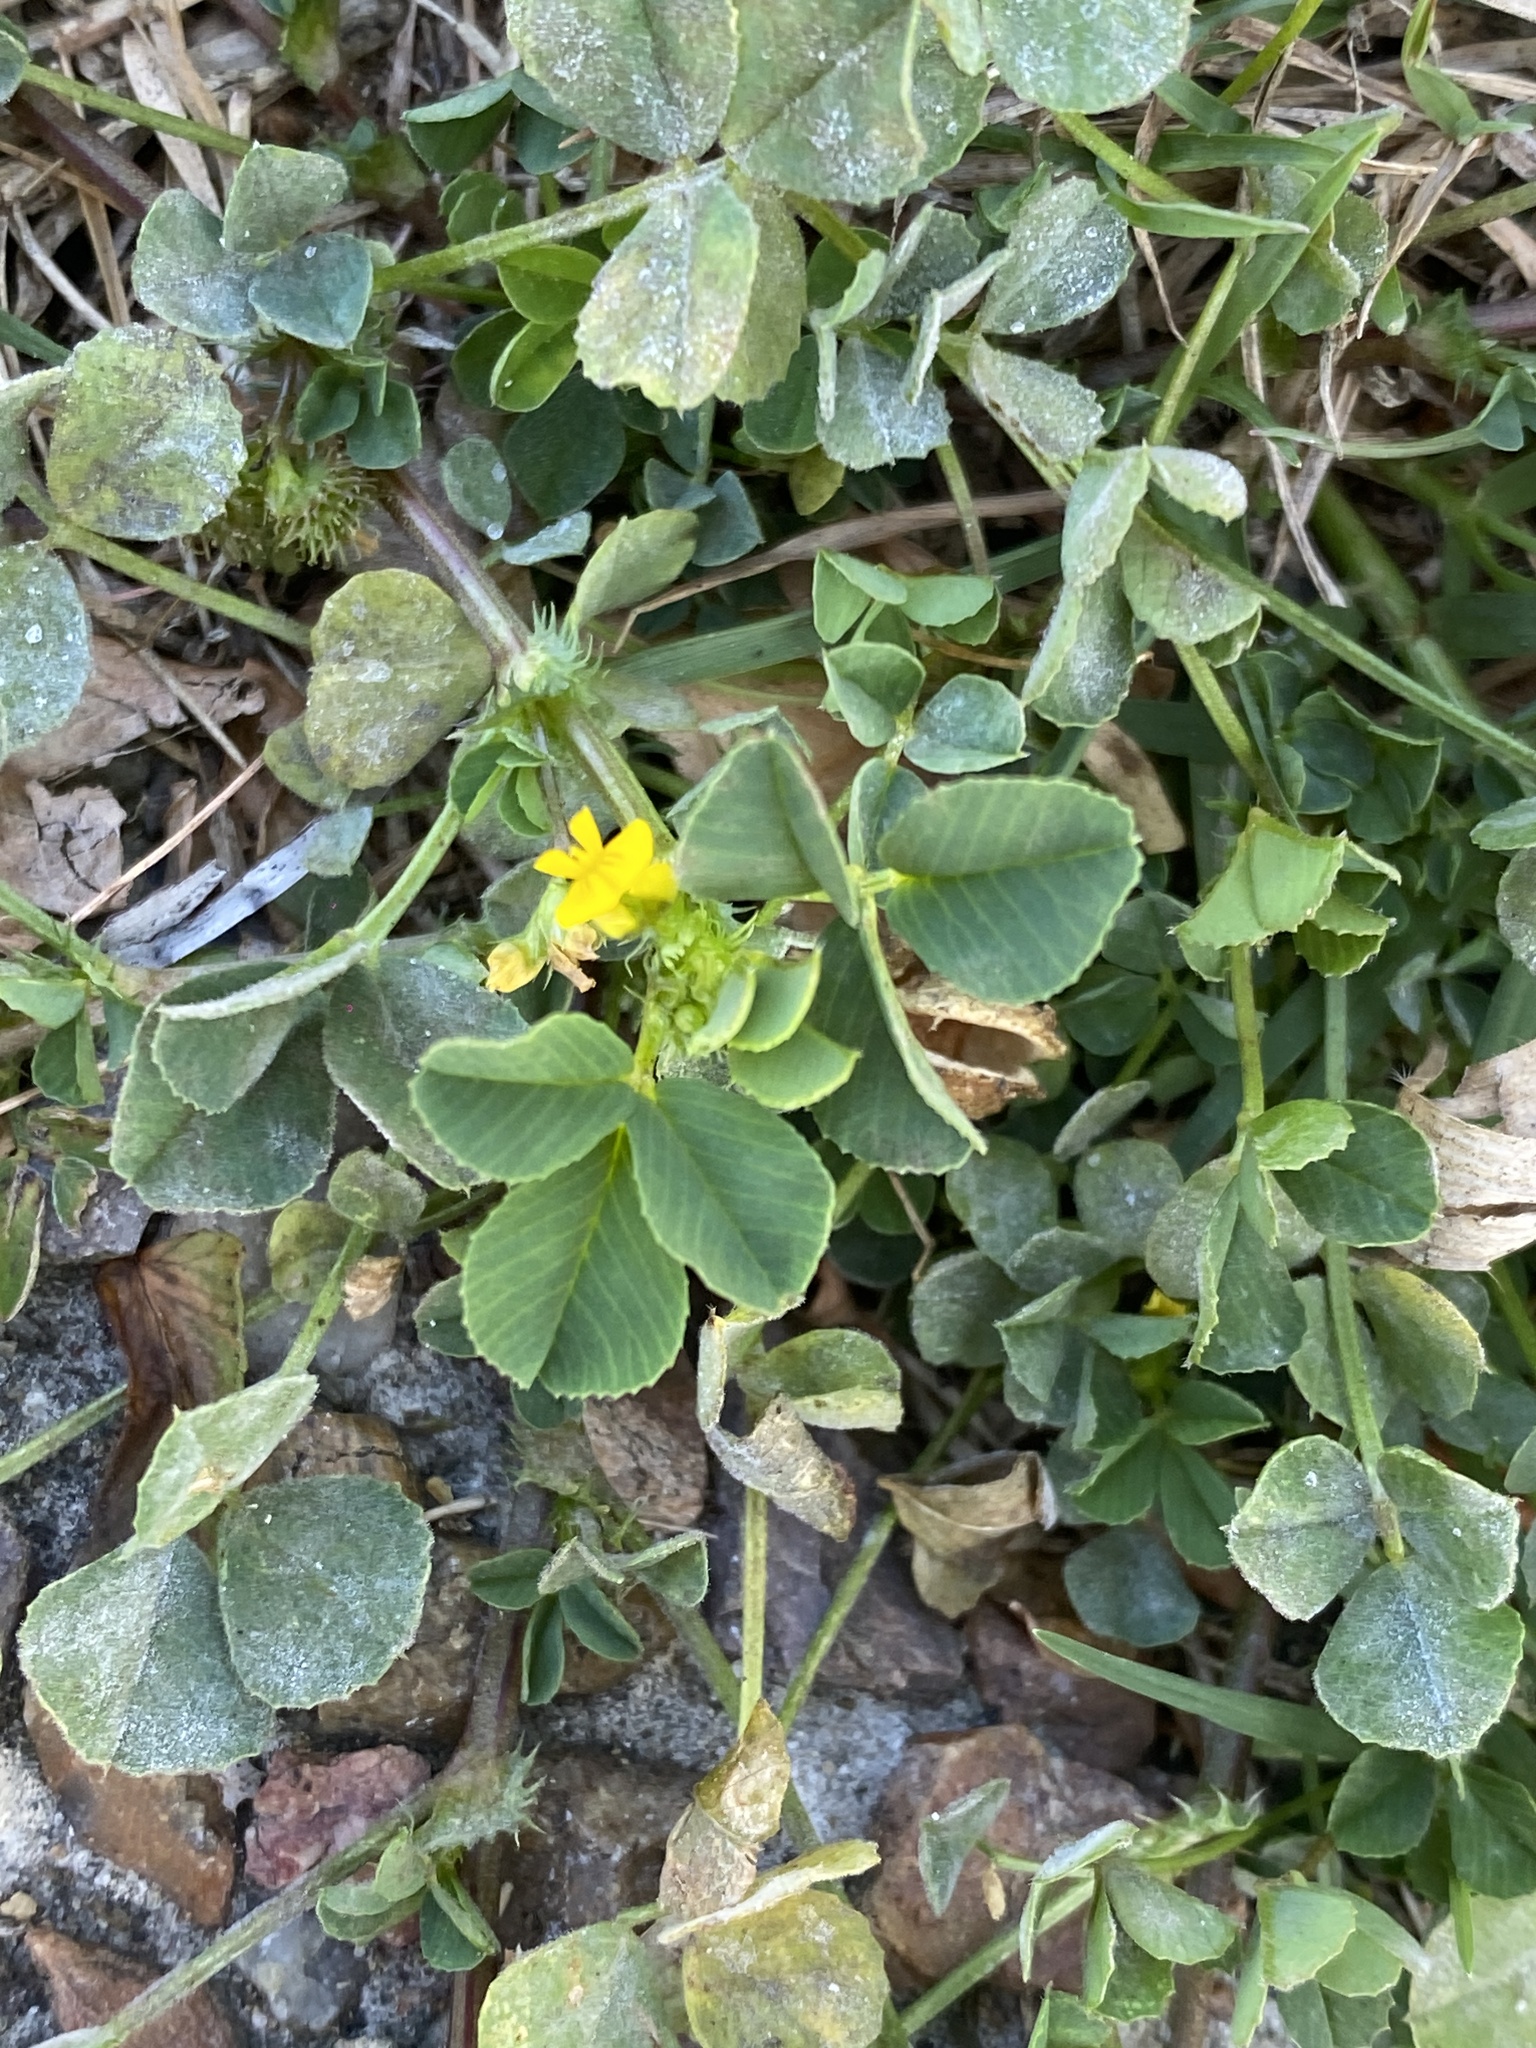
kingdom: Plantae
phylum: Tracheophyta
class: Magnoliopsida
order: Fabales
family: Fabaceae
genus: Medicago
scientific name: Medicago polymorpha
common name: Burclover
